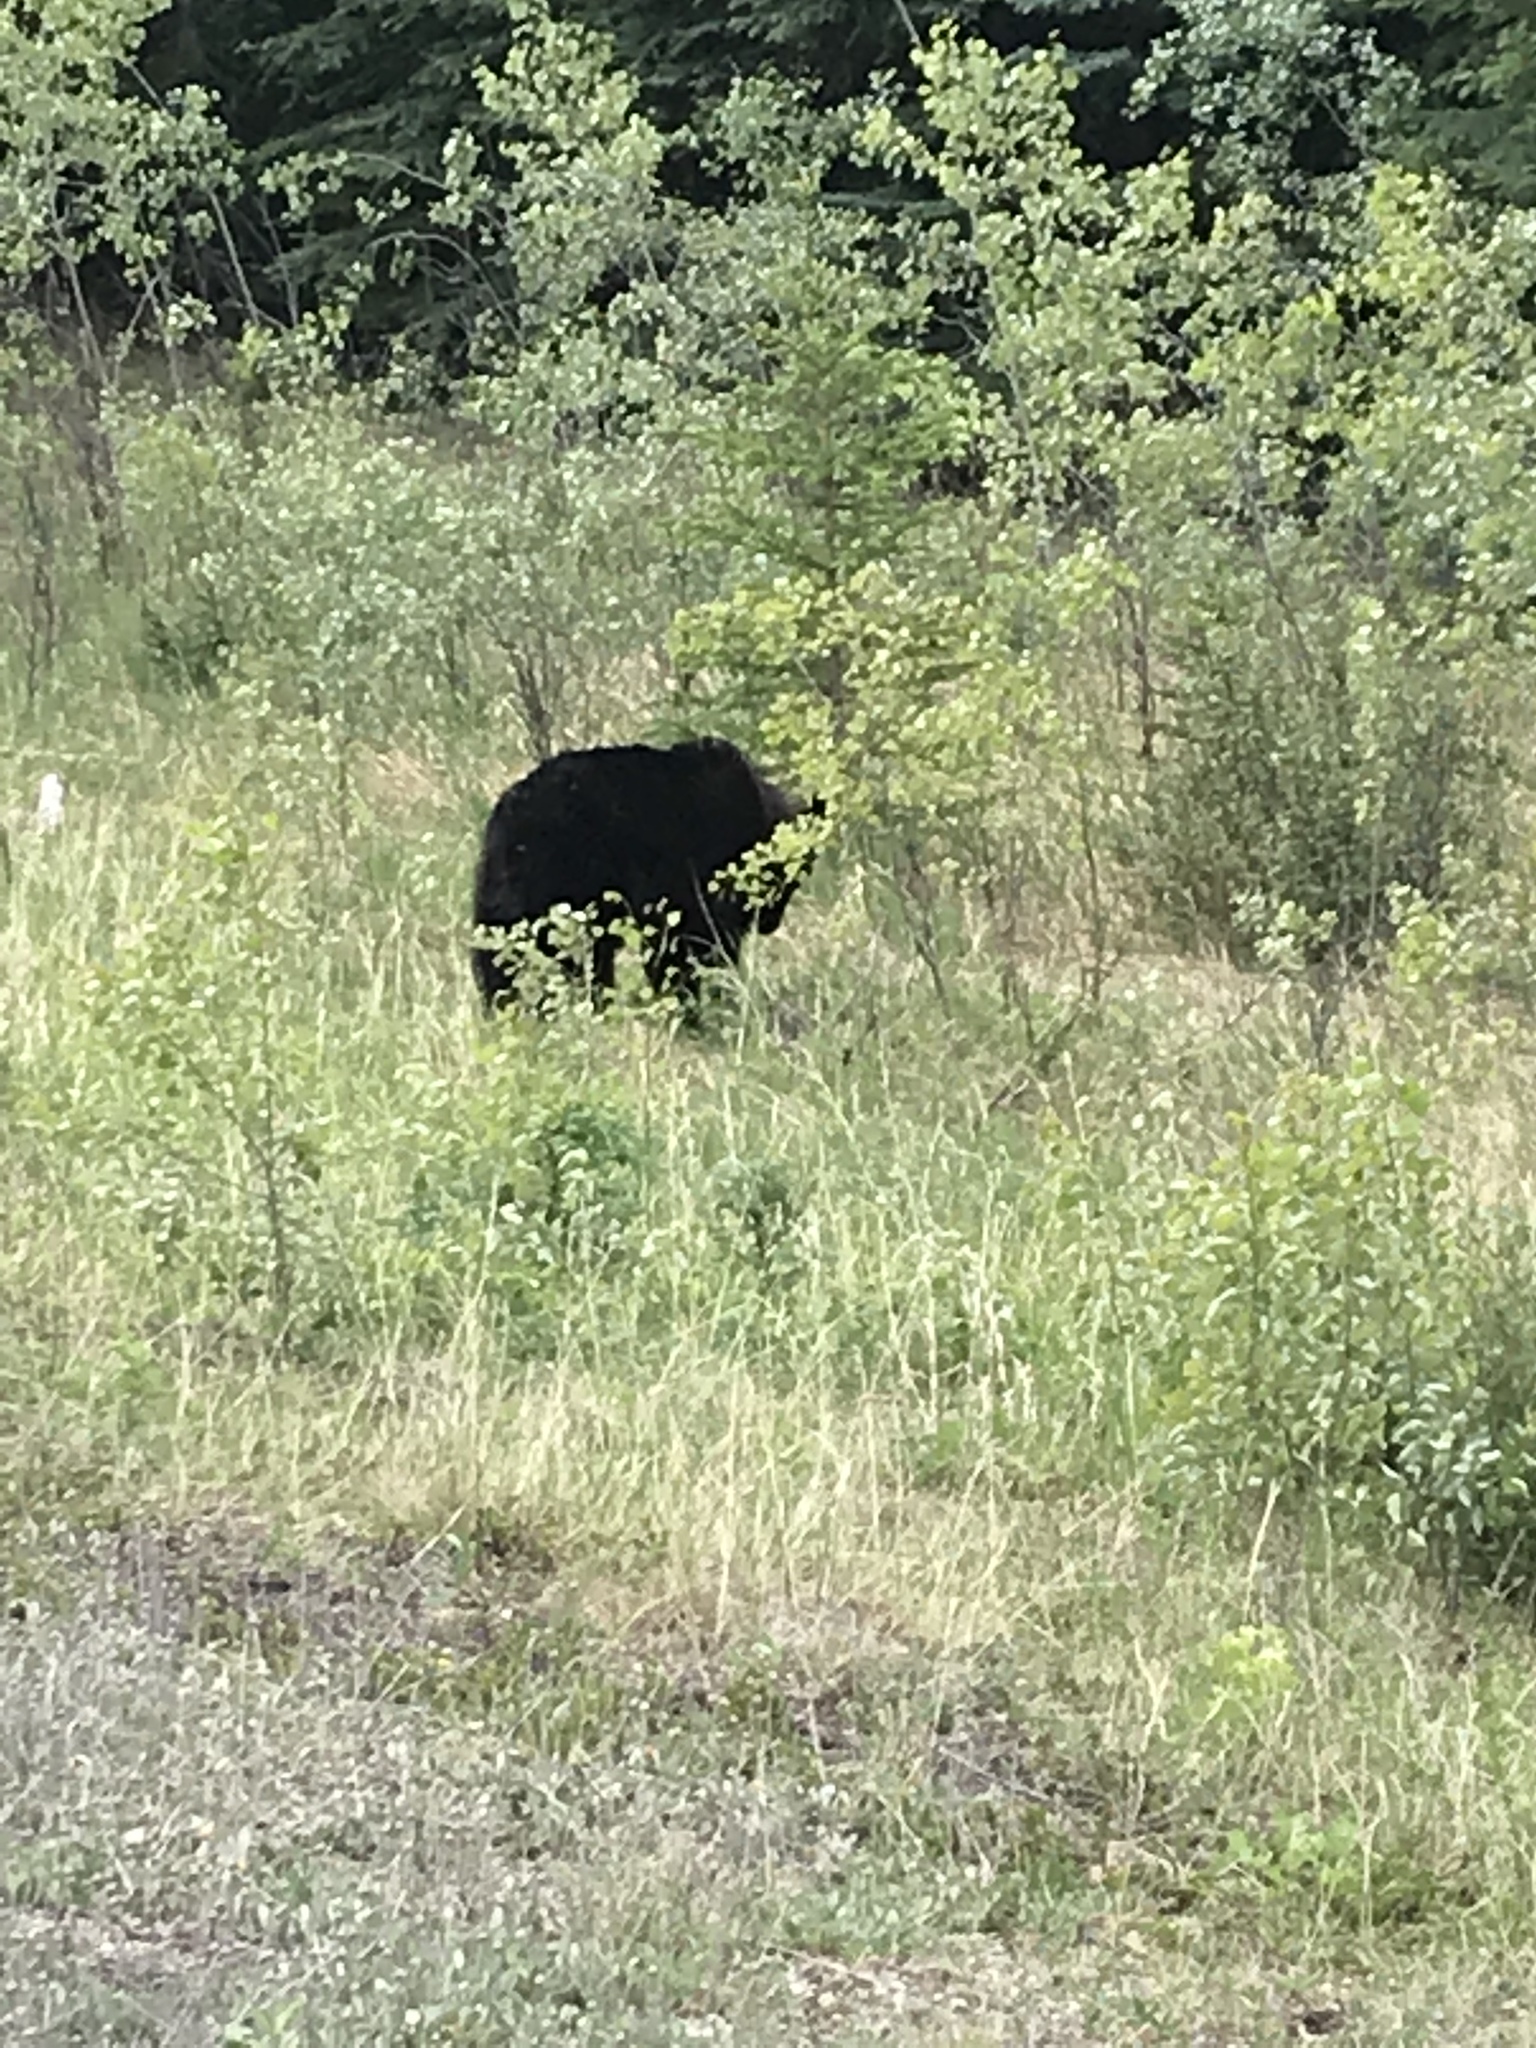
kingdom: Animalia
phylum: Chordata
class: Mammalia
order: Carnivora
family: Ursidae
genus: Ursus
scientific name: Ursus americanus
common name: American black bear
